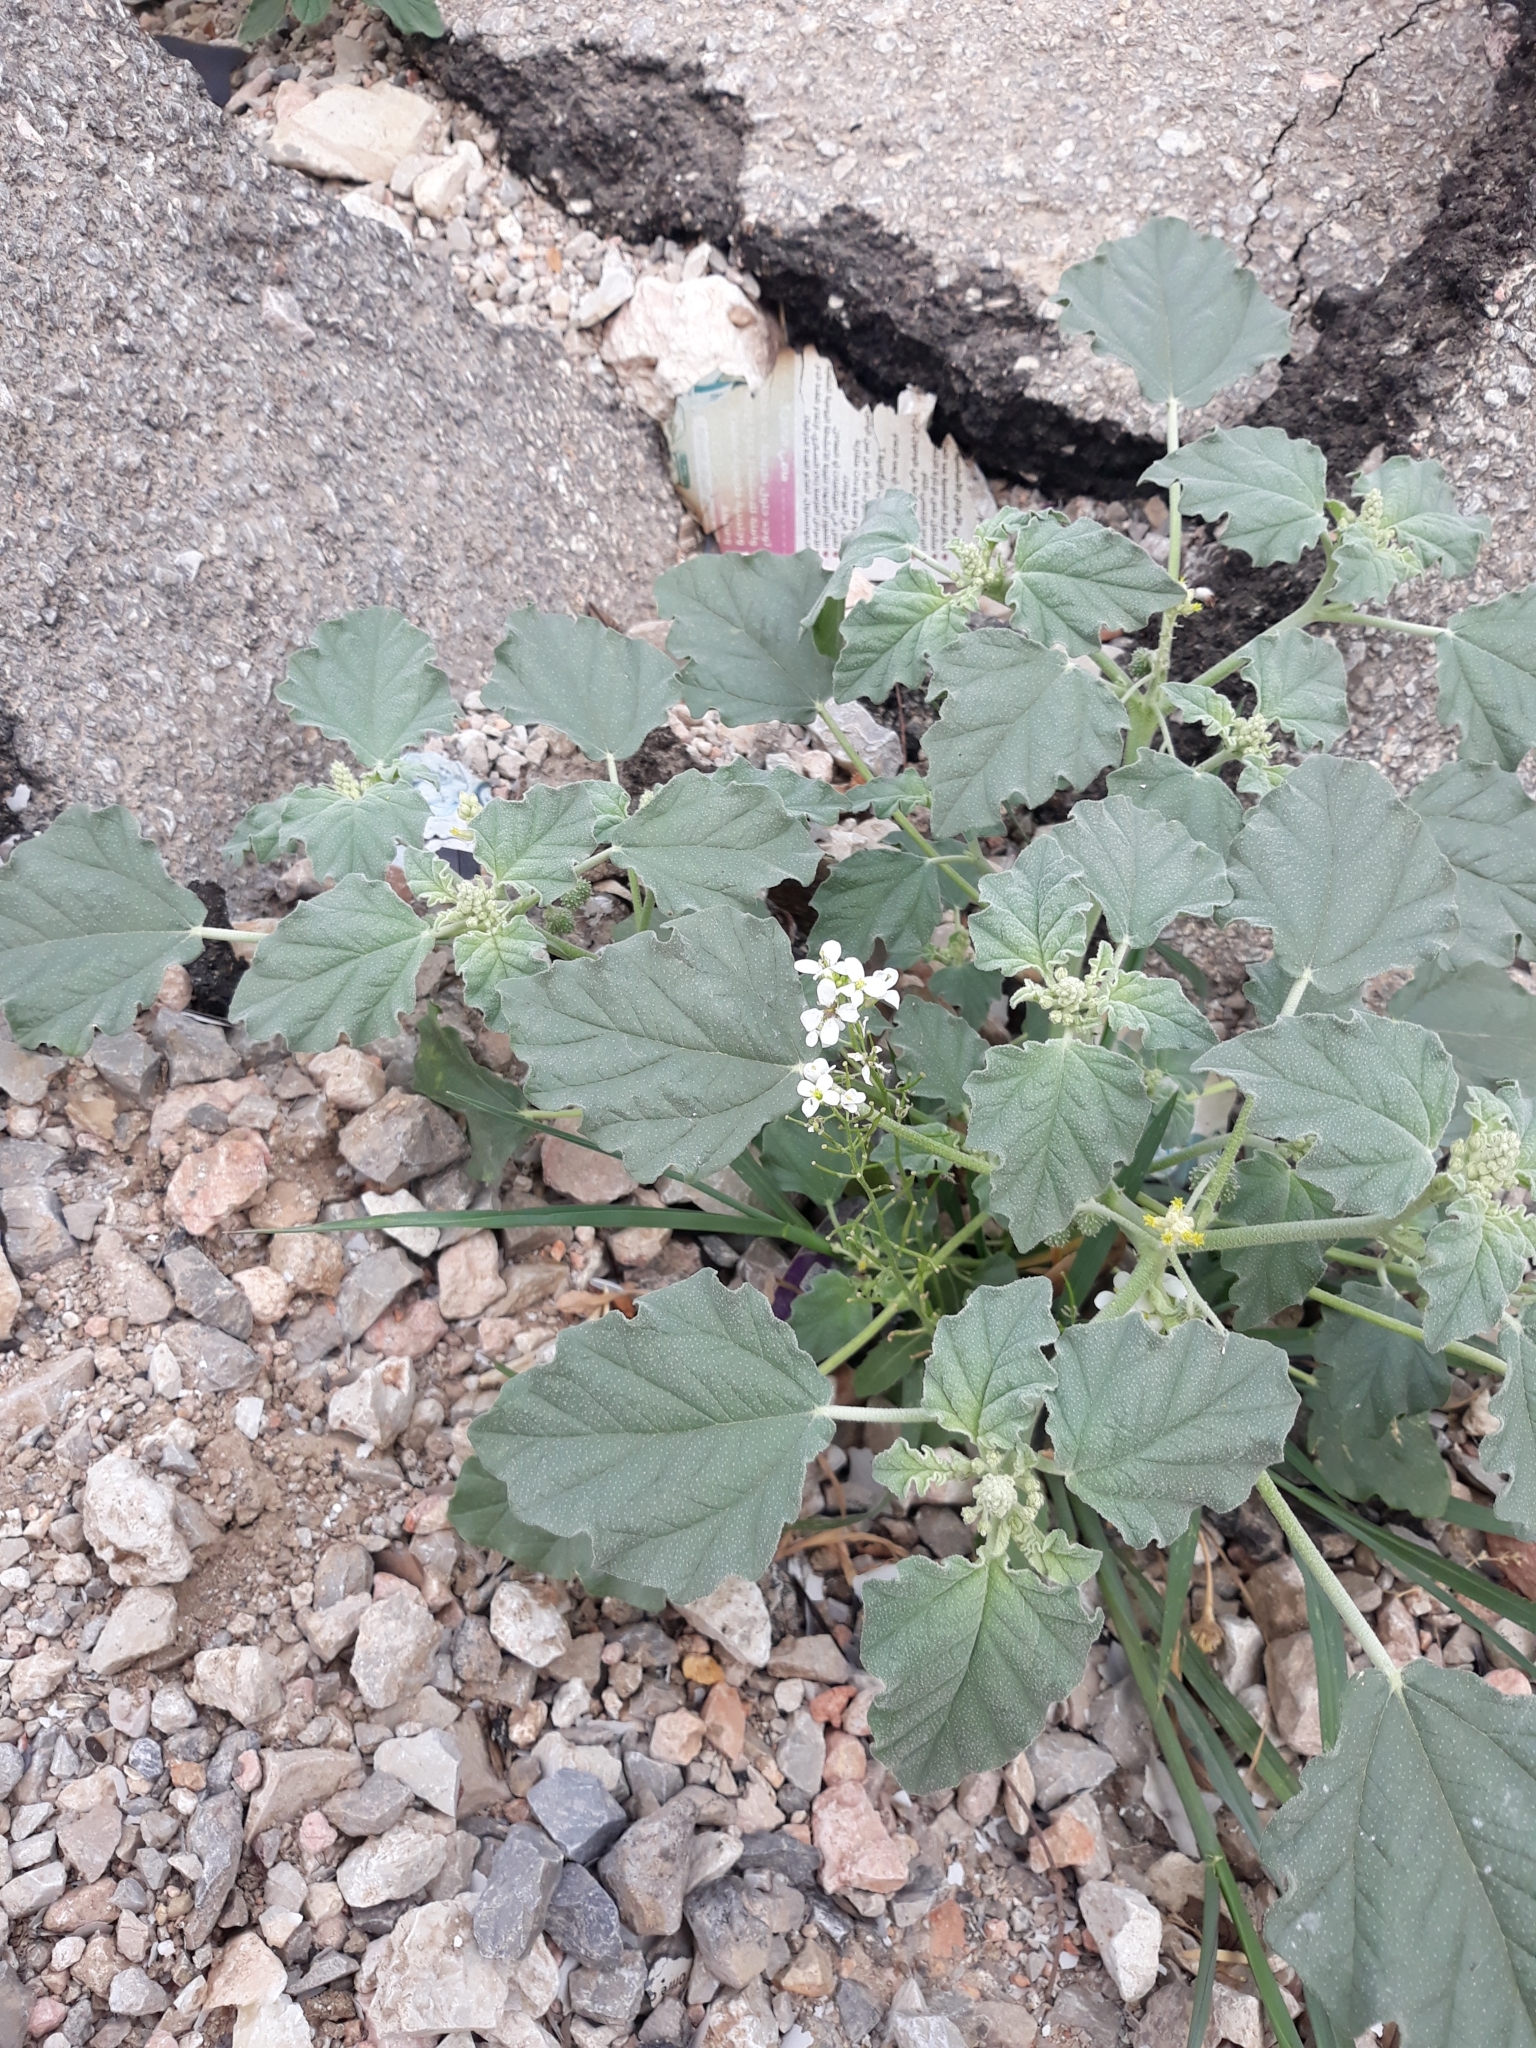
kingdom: Plantae
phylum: Tracheophyta
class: Magnoliopsida
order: Malpighiales
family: Euphorbiaceae
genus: Chrozophora
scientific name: Chrozophora tinctoria
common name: Dyer's litmus
